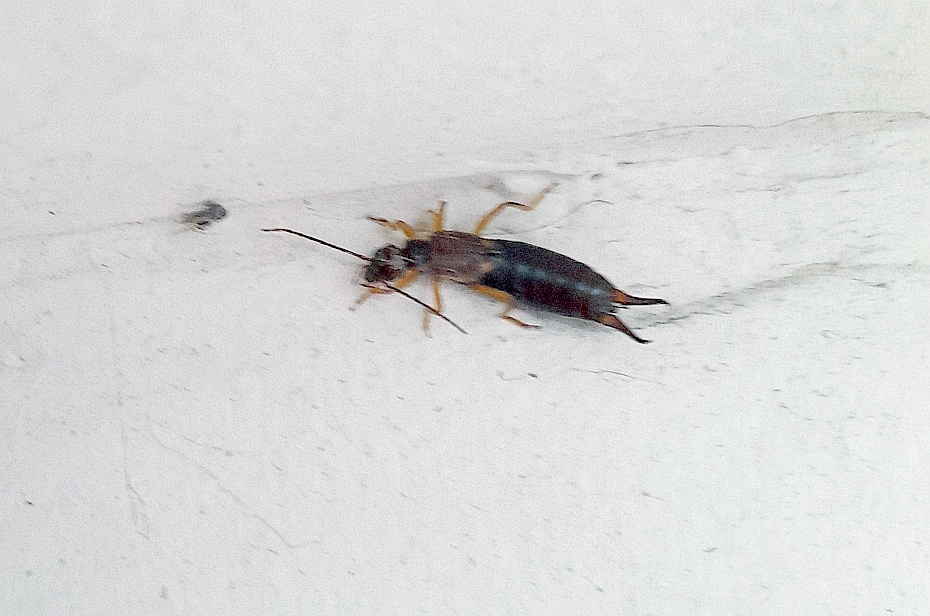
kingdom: Animalia
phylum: Arthropoda
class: Insecta
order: Dermaptera
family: Forficulidae
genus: Forficula
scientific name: Forficula
